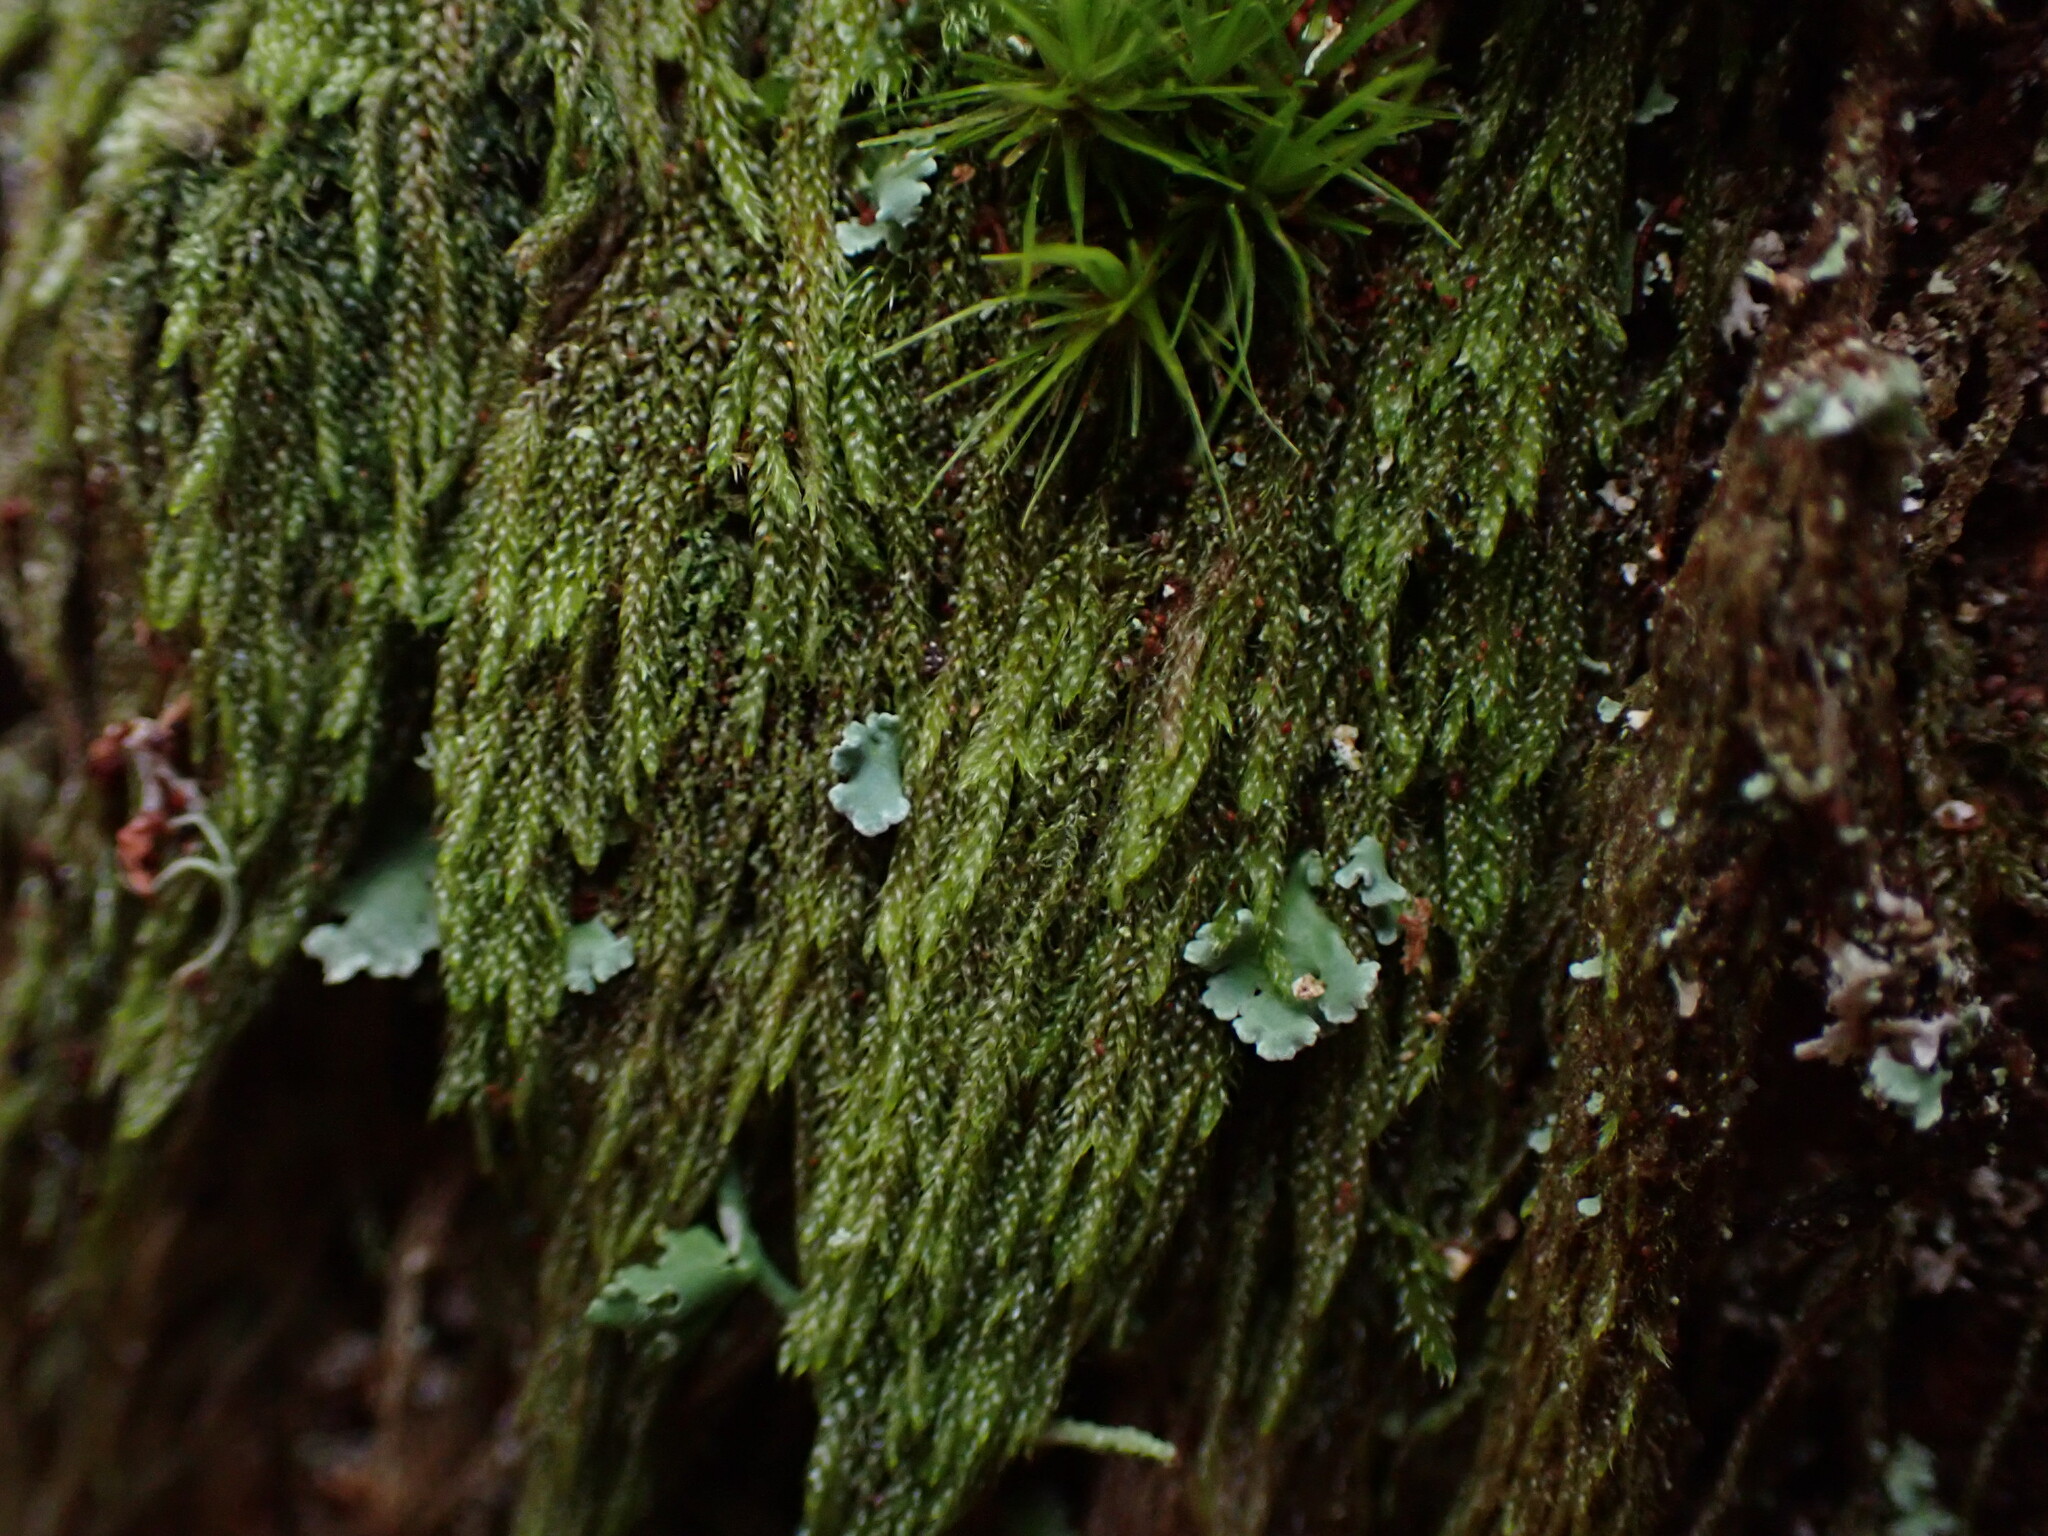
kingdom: Plantae
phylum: Bryophyta
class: Bryopsida
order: Hypnales
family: Pylaisiadelphaceae
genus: Trochophyllohypnum
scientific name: Trochophyllohypnum circinale
